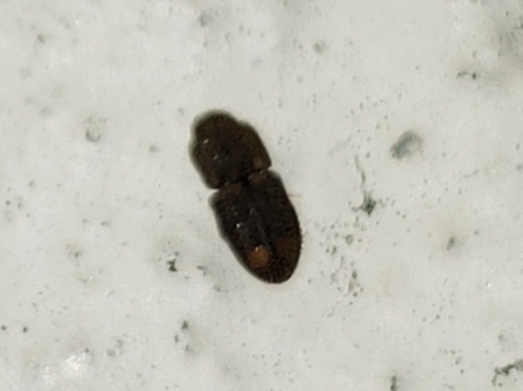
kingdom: Animalia
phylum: Arthropoda
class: Insecta
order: Coleoptera
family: Elateridae
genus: Rismethus
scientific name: Rismethus
